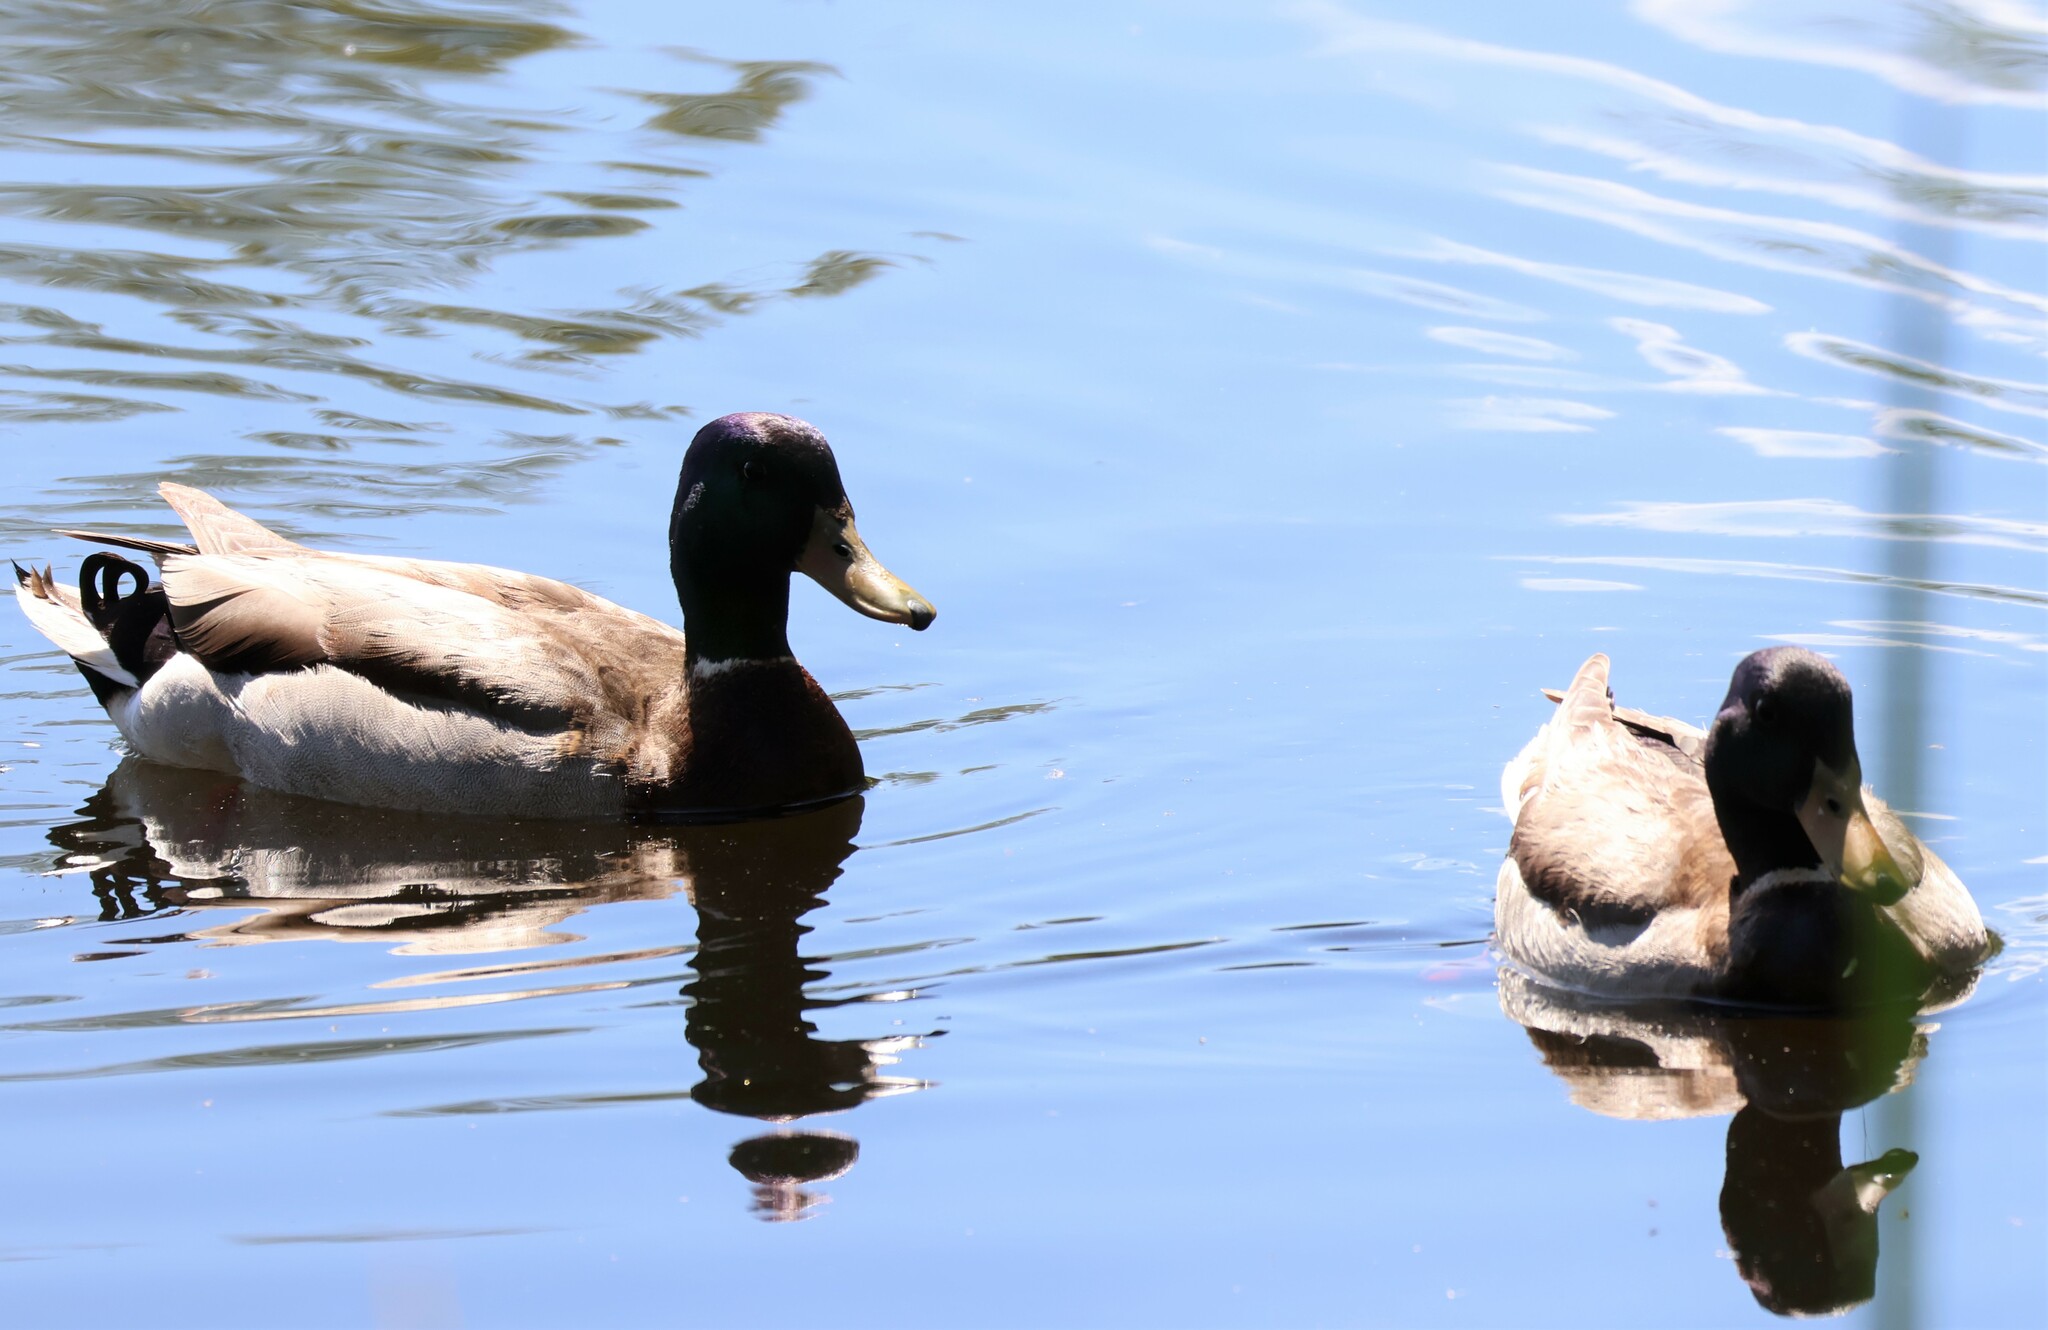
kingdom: Animalia
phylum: Chordata
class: Aves
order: Anseriformes
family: Anatidae
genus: Anas
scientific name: Anas platyrhynchos
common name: Mallard
